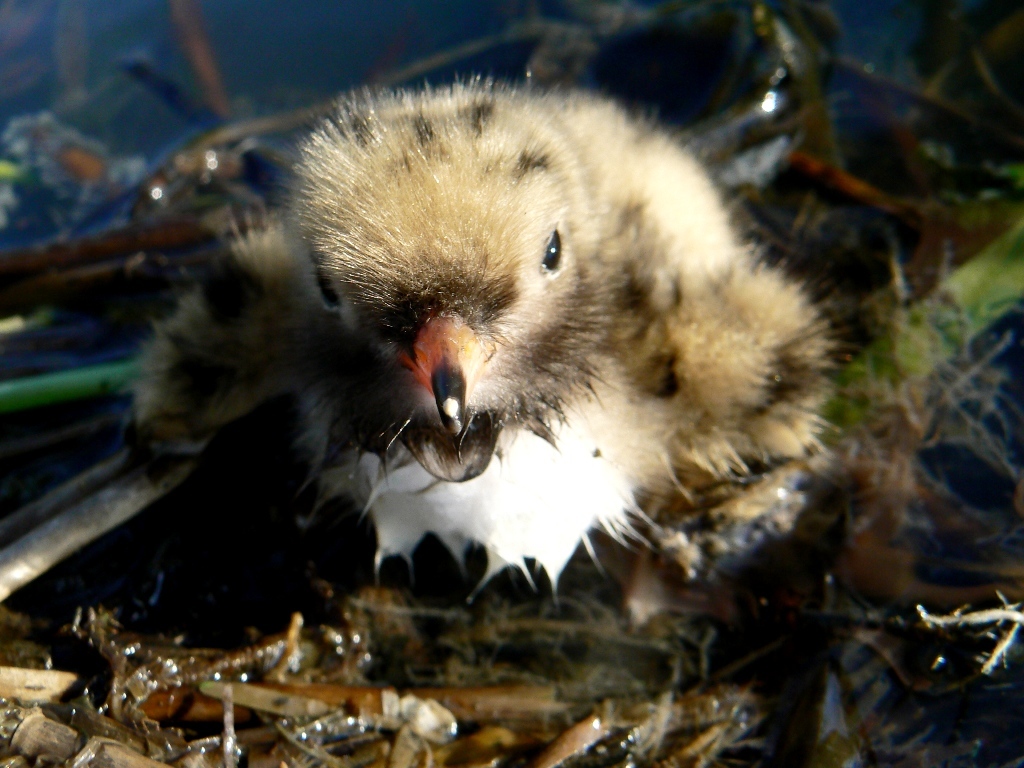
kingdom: Animalia
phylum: Chordata
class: Aves
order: Charadriiformes
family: Laridae
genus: Sterna
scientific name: Sterna hirundo
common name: Common tern
